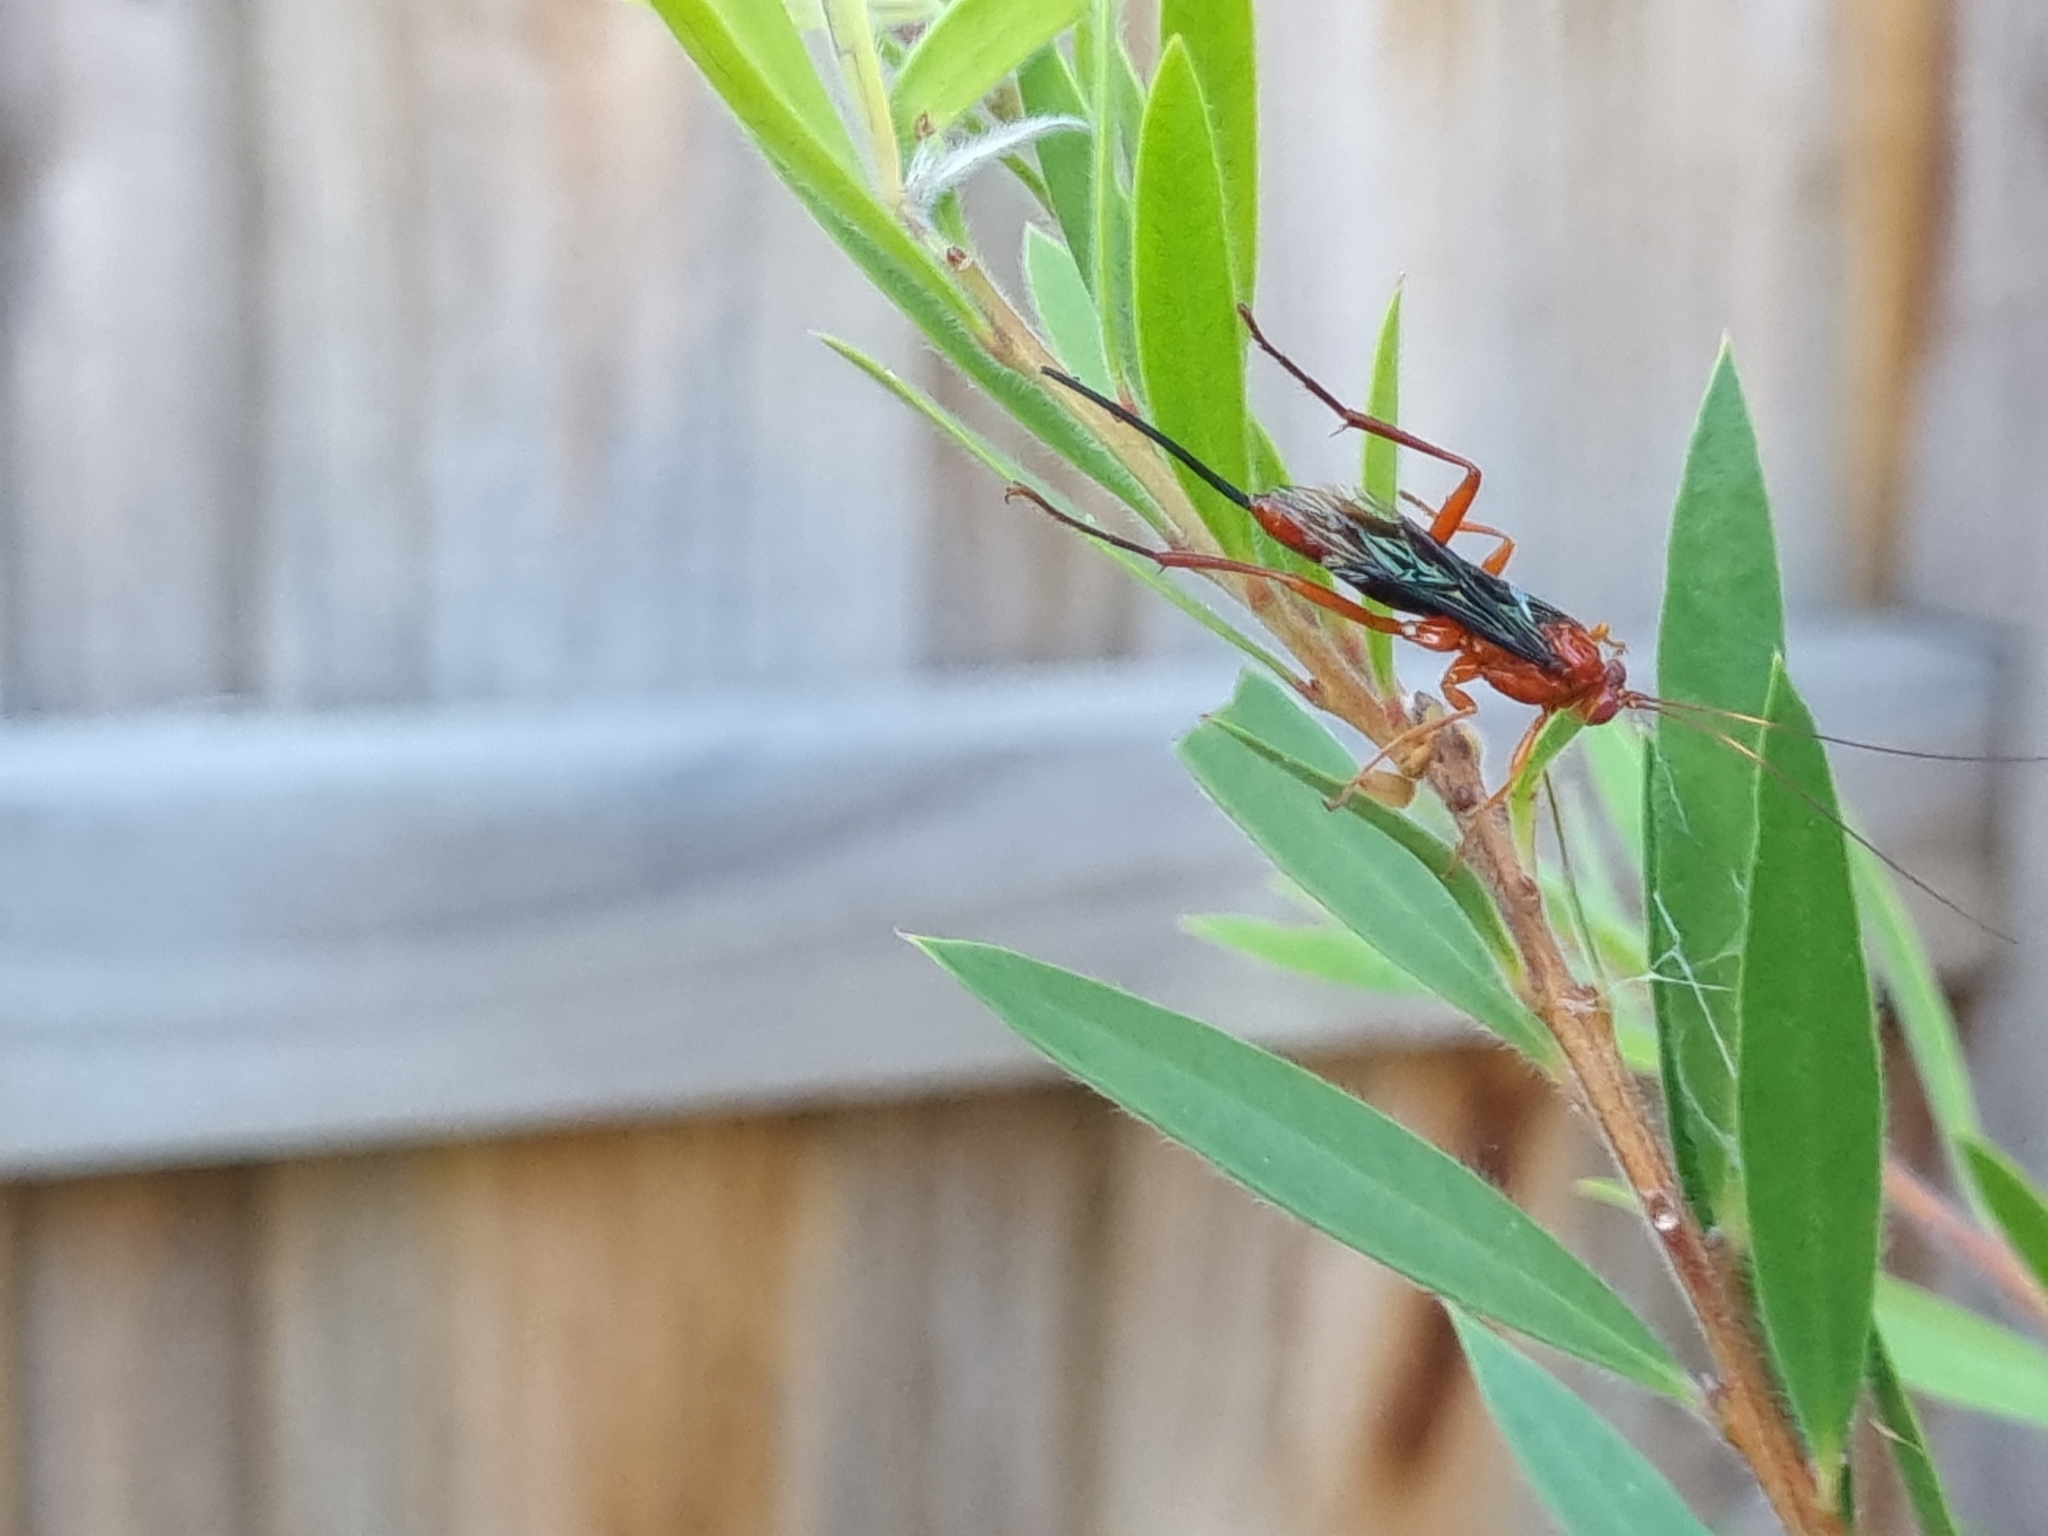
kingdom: Animalia
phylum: Arthropoda
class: Insecta
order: Hymenoptera
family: Ichneumonidae
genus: Lissopimpla
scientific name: Lissopimpla excelsa
